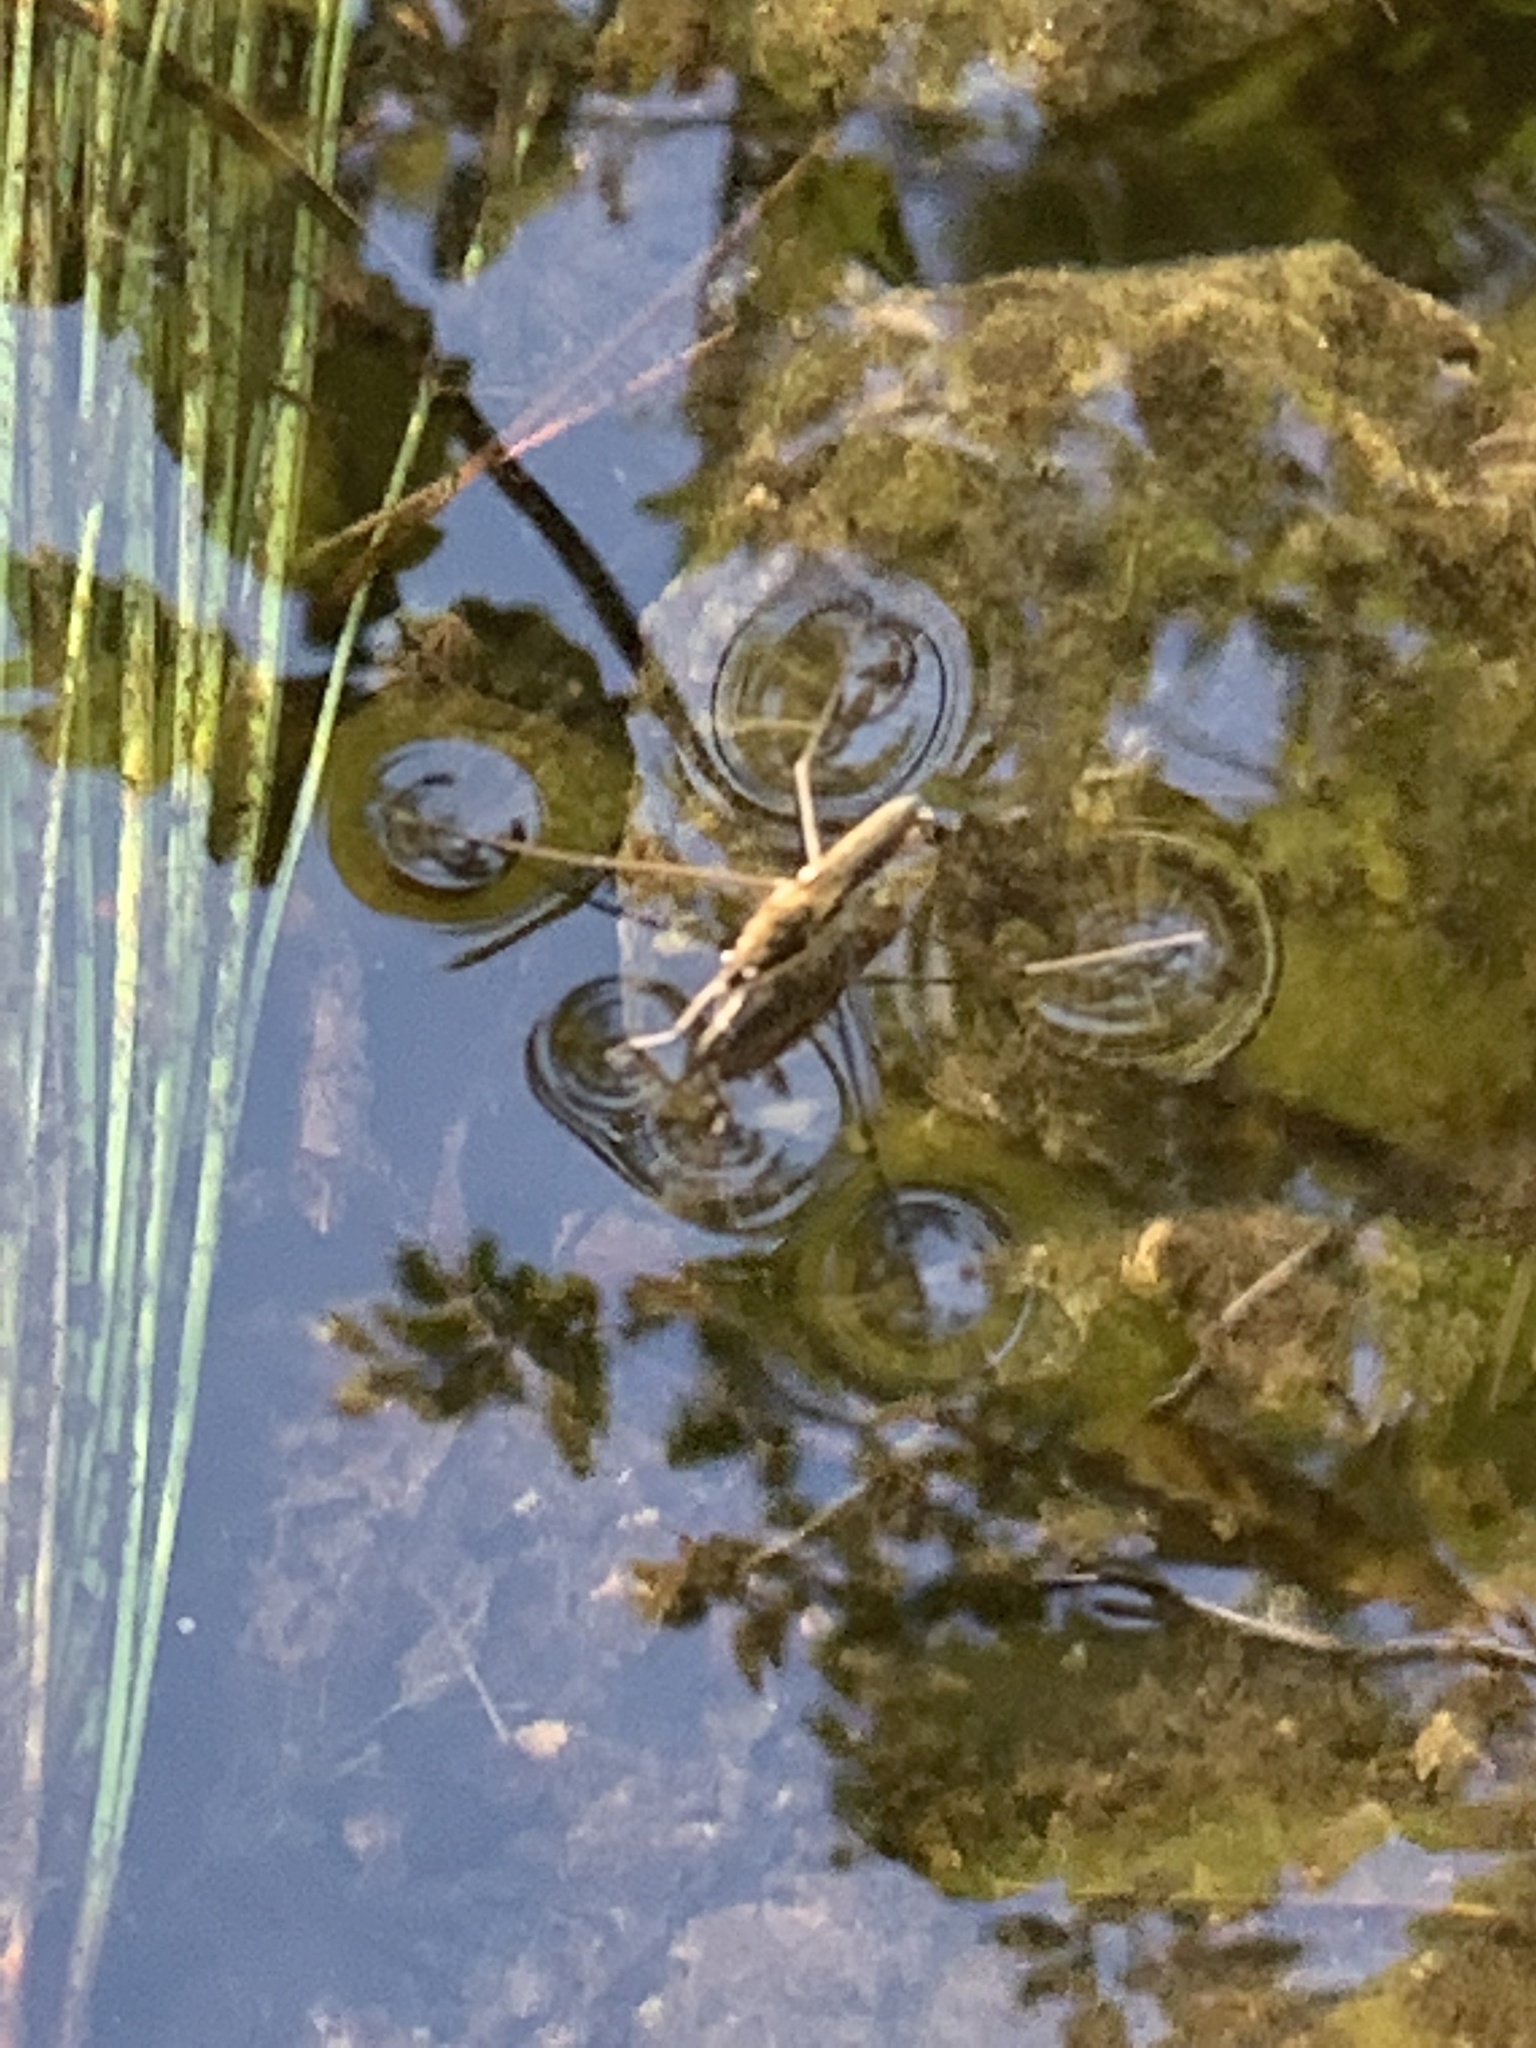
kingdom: Animalia
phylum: Arthropoda
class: Insecta
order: Hemiptera
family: Gerridae
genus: Aquarius
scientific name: Aquarius remigis
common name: Common water strider
